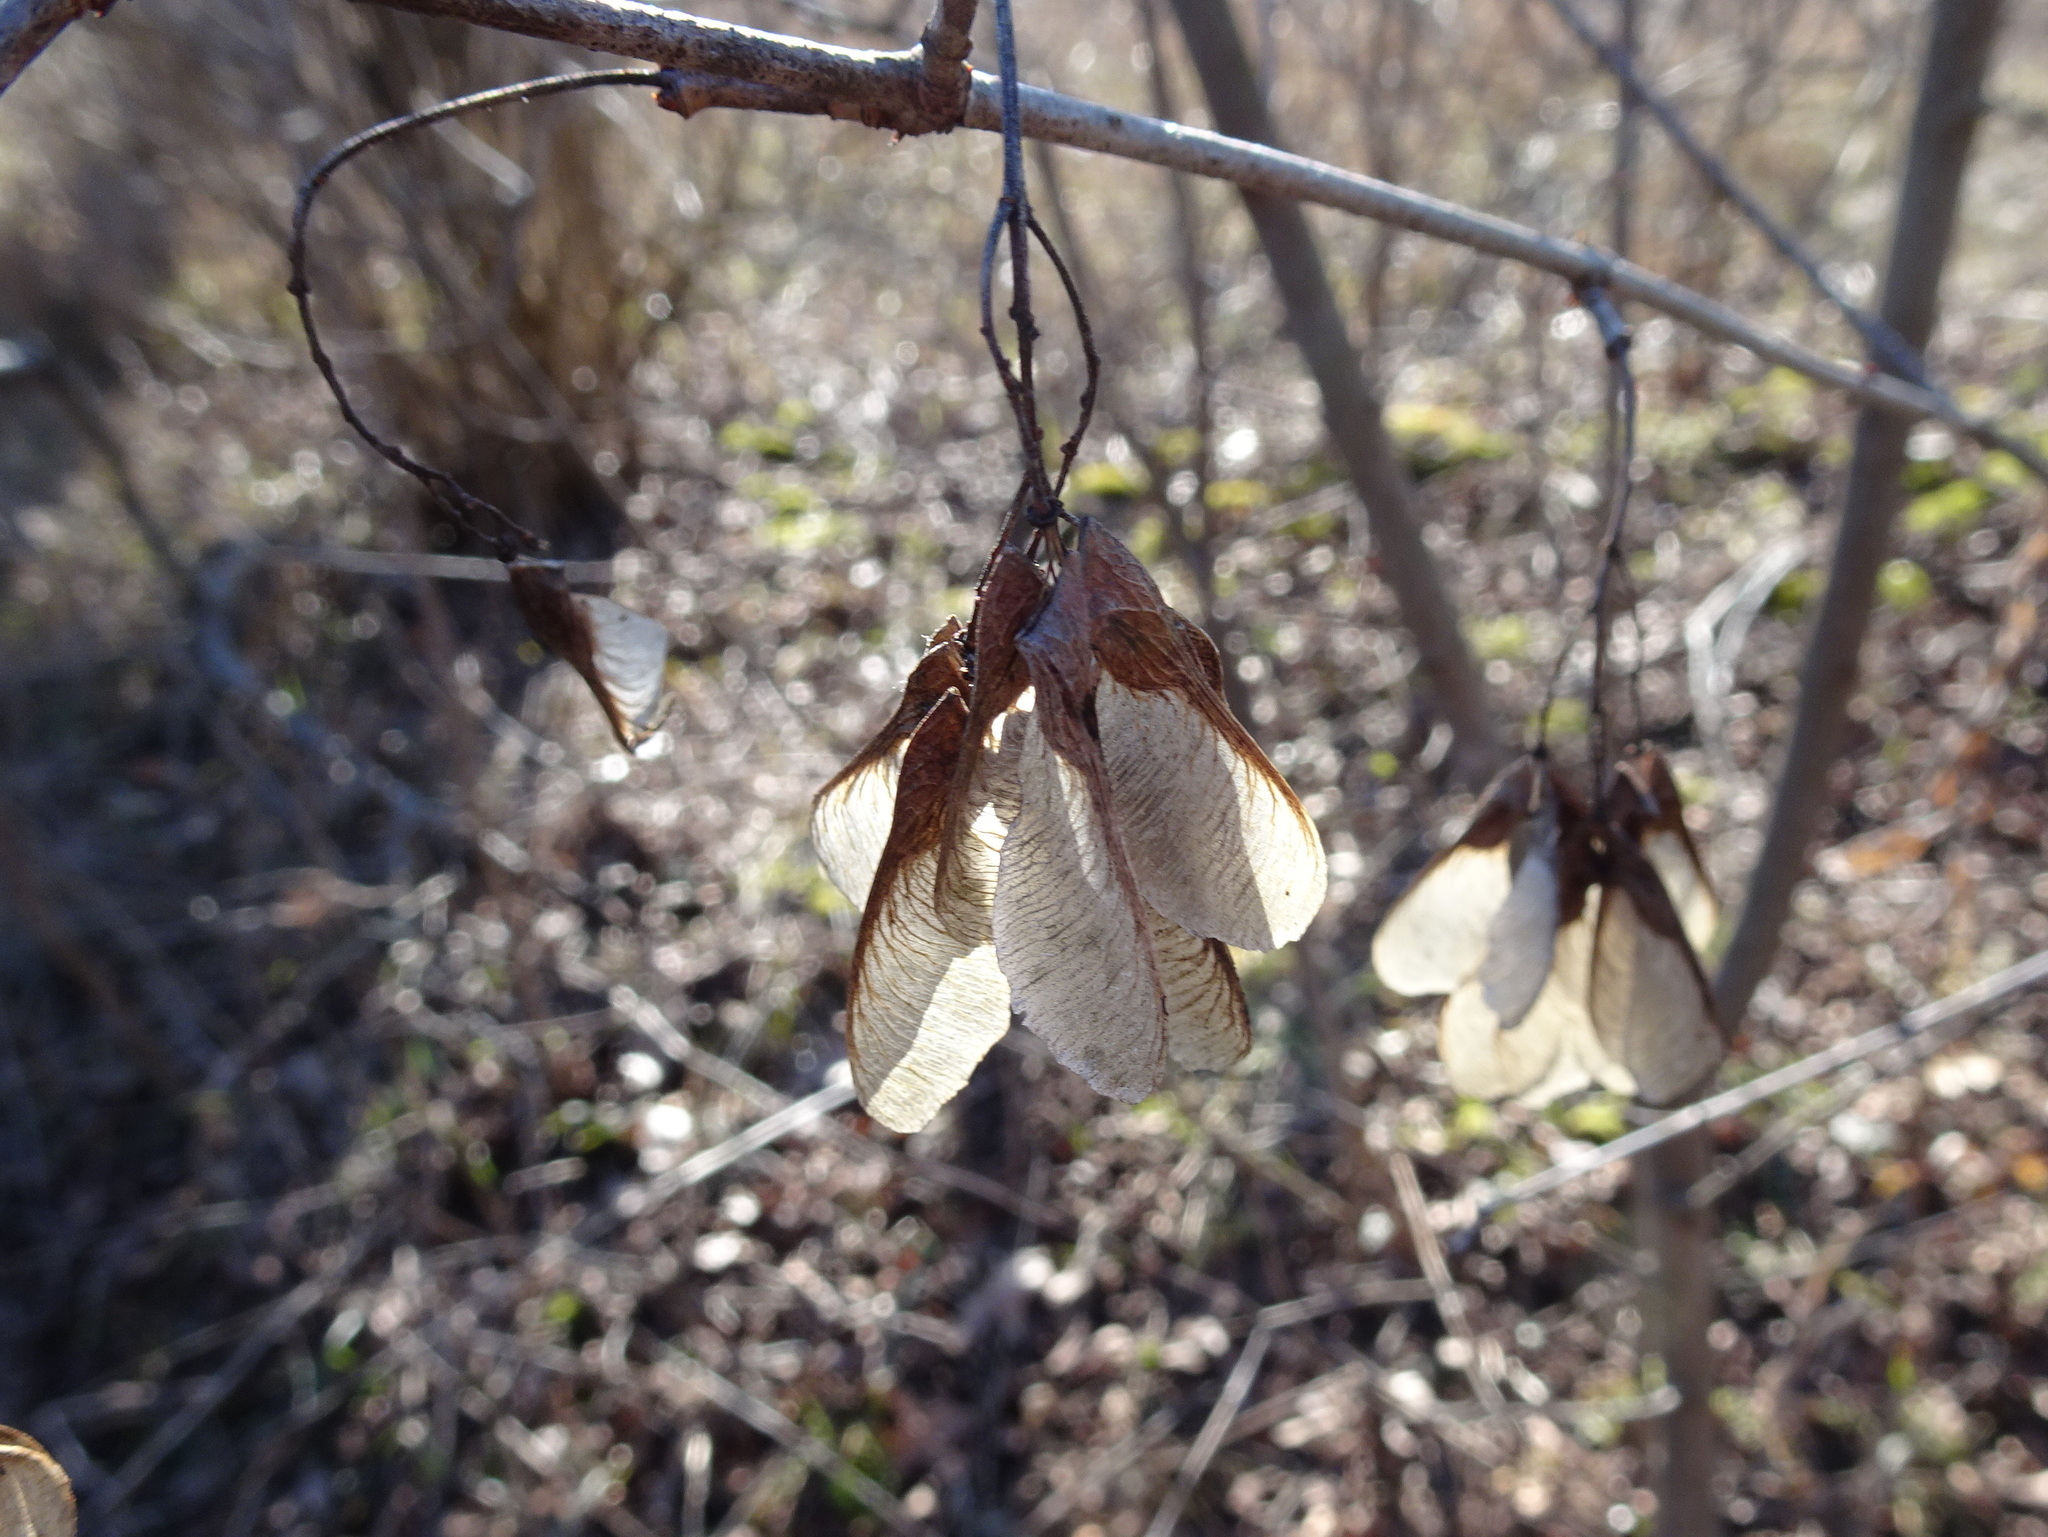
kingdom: Plantae
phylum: Tracheophyta
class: Magnoliopsida
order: Sapindales
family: Sapindaceae
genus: Acer
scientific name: Acer negundo
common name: Ashleaf maple
